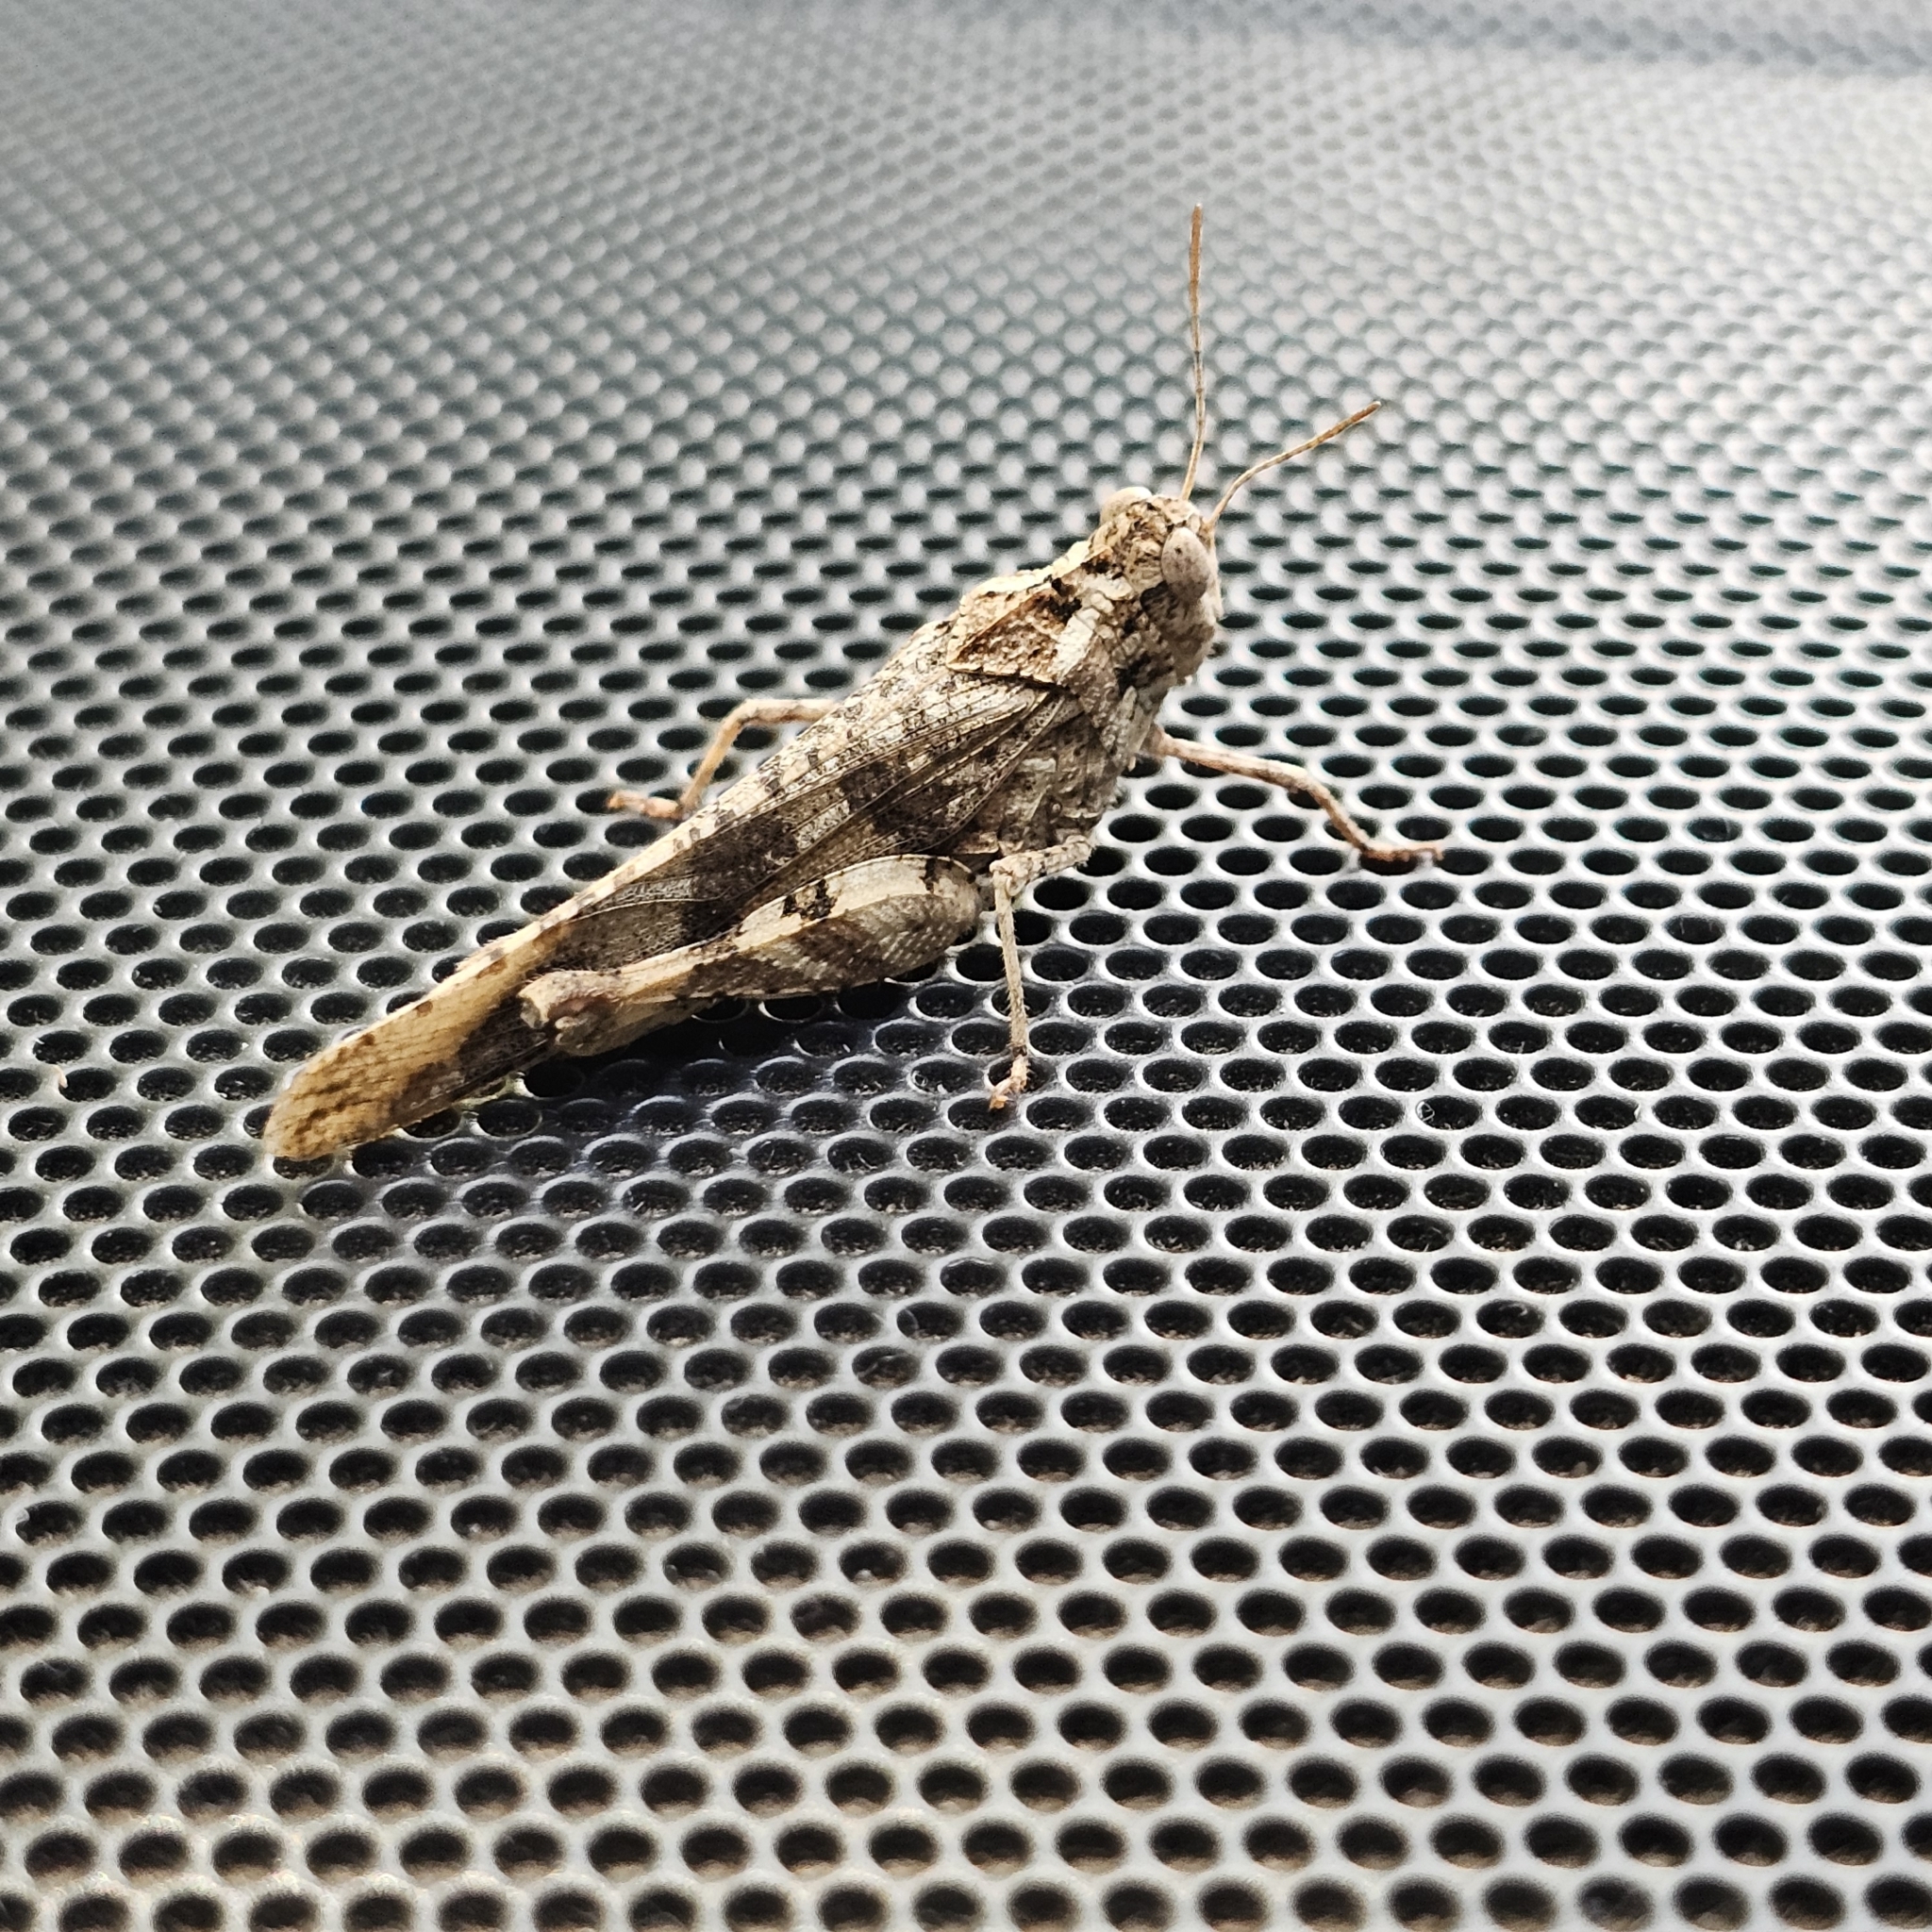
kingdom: Animalia
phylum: Arthropoda
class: Insecta
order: Orthoptera
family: Acrididae
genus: Lactista
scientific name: Lactista stramineus
